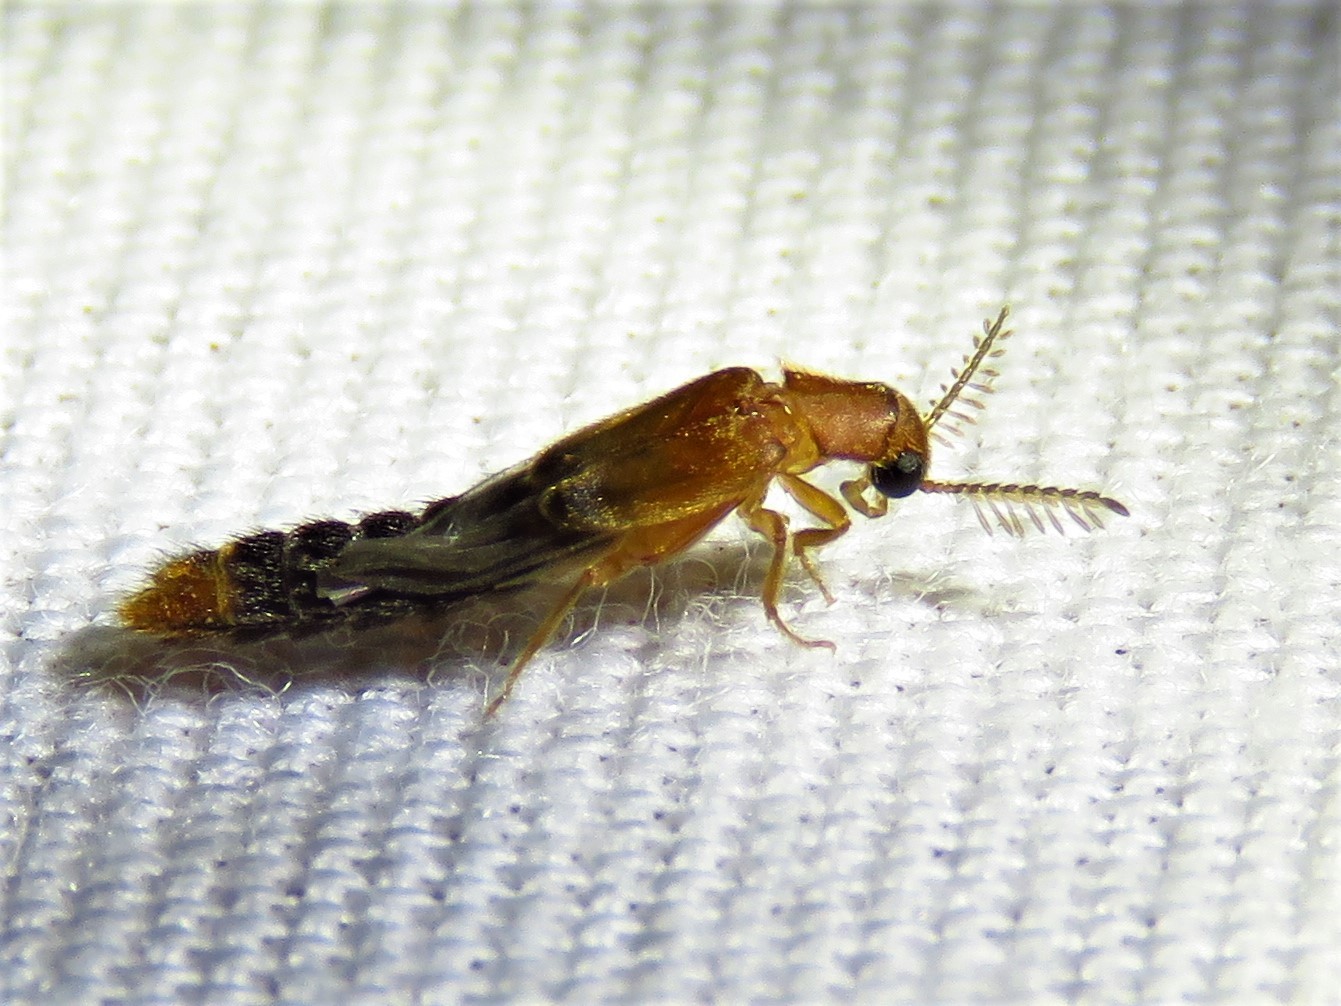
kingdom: Animalia
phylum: Arthropoda
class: Insecta
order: Coleoptera
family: Phengodidae
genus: Distremocephalus
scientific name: Distremocephalus texanus
